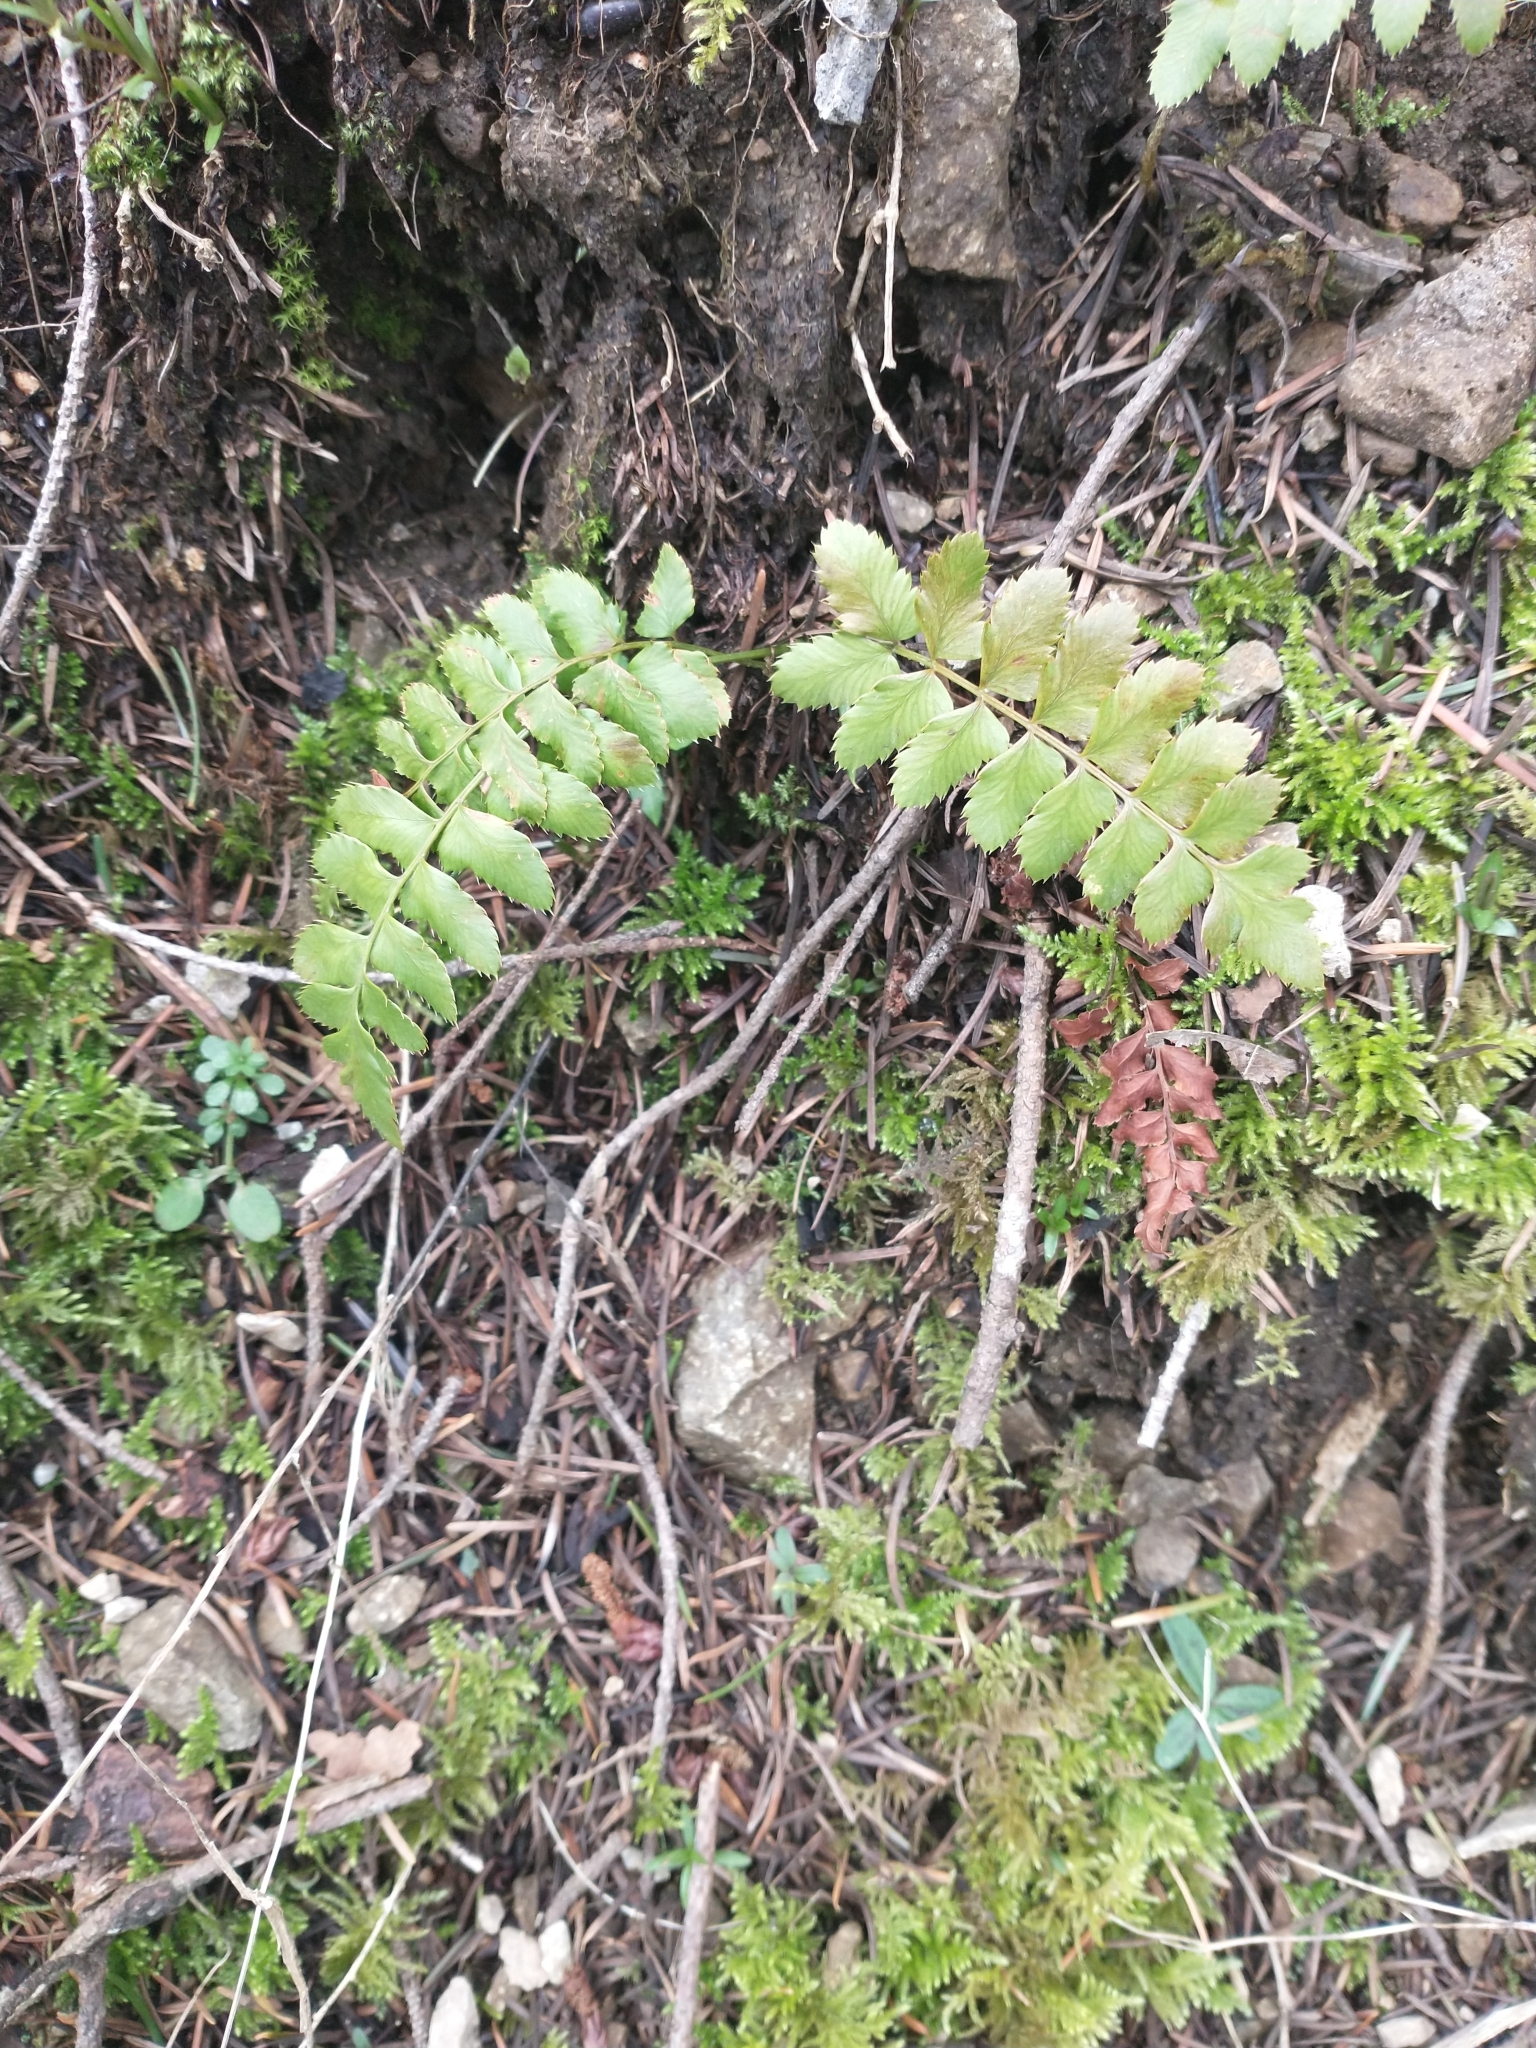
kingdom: Plantae
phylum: Tracheophyta
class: Polypodiopsida
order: Polypodiales
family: Dryopteridaceae
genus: Polystichum
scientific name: Polystichum munitum
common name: Western sword-fern
